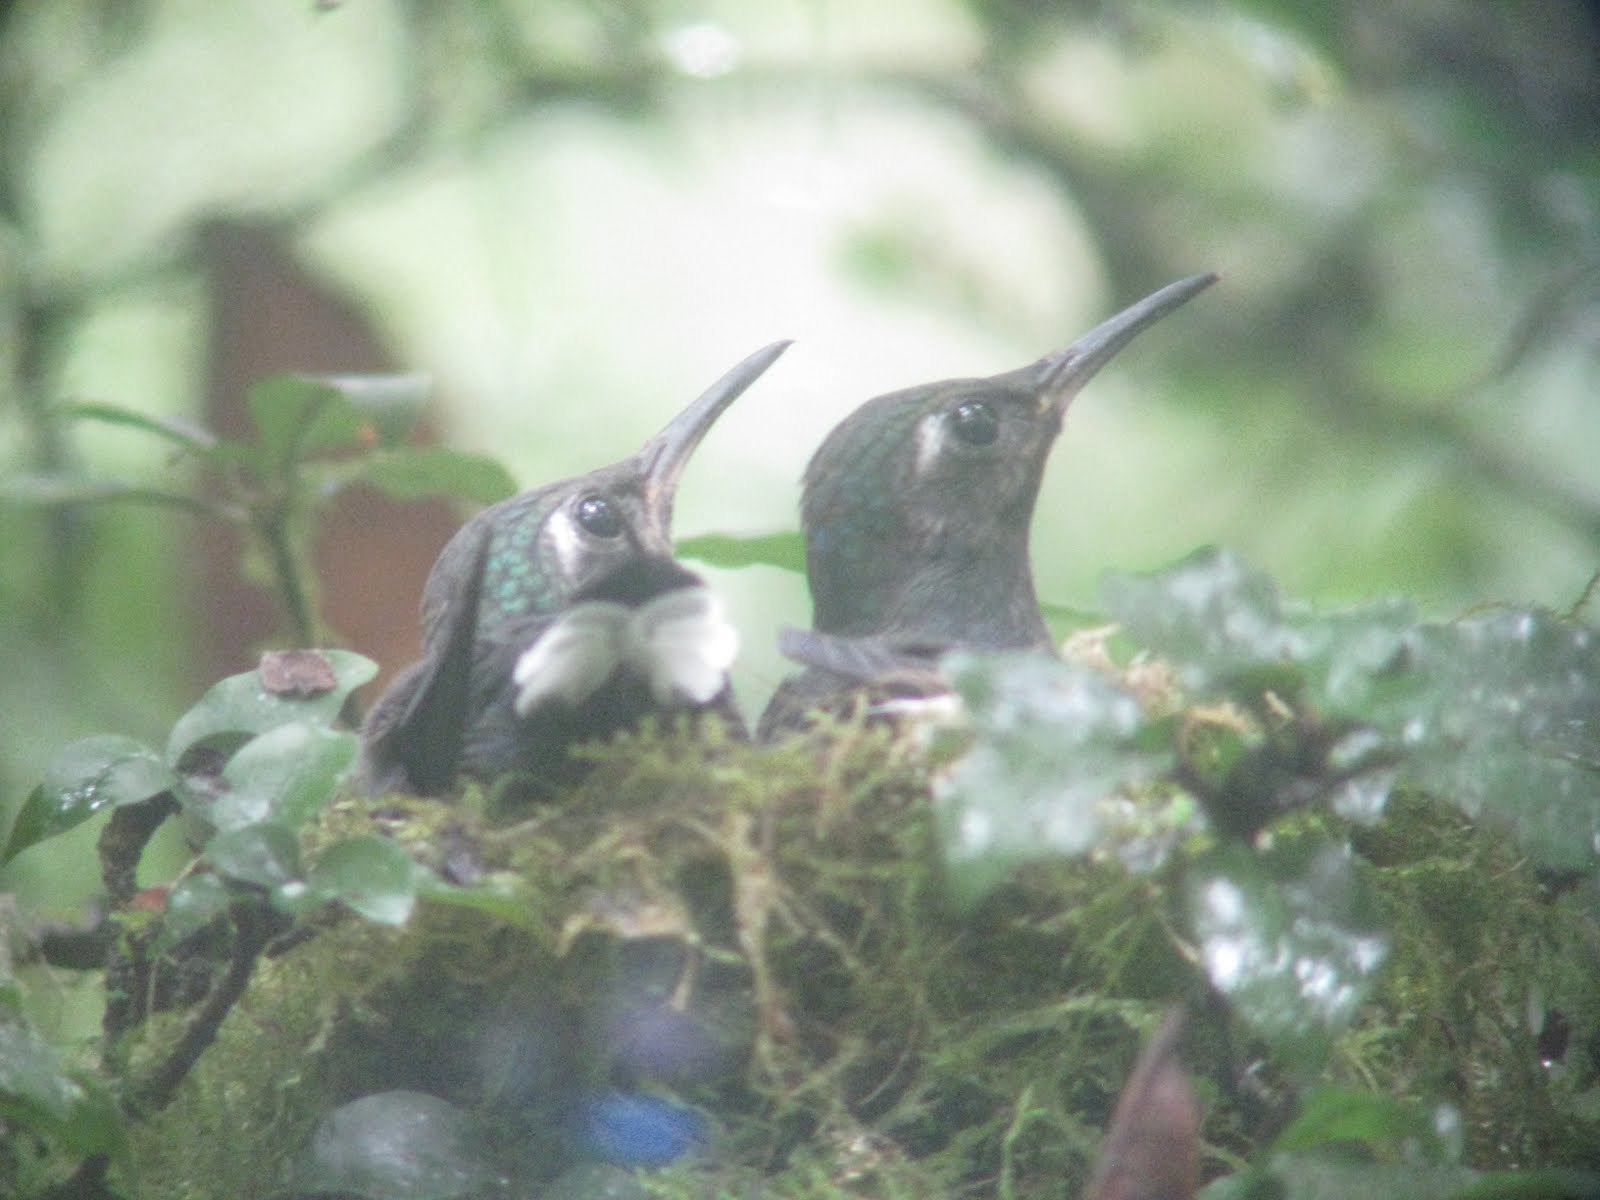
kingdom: Animalia
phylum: Chordata
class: Aves
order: Apodiformes
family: Trochilidae
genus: Lampornis
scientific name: Lampornis calolaemus
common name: Purple-throated mountain-gem
